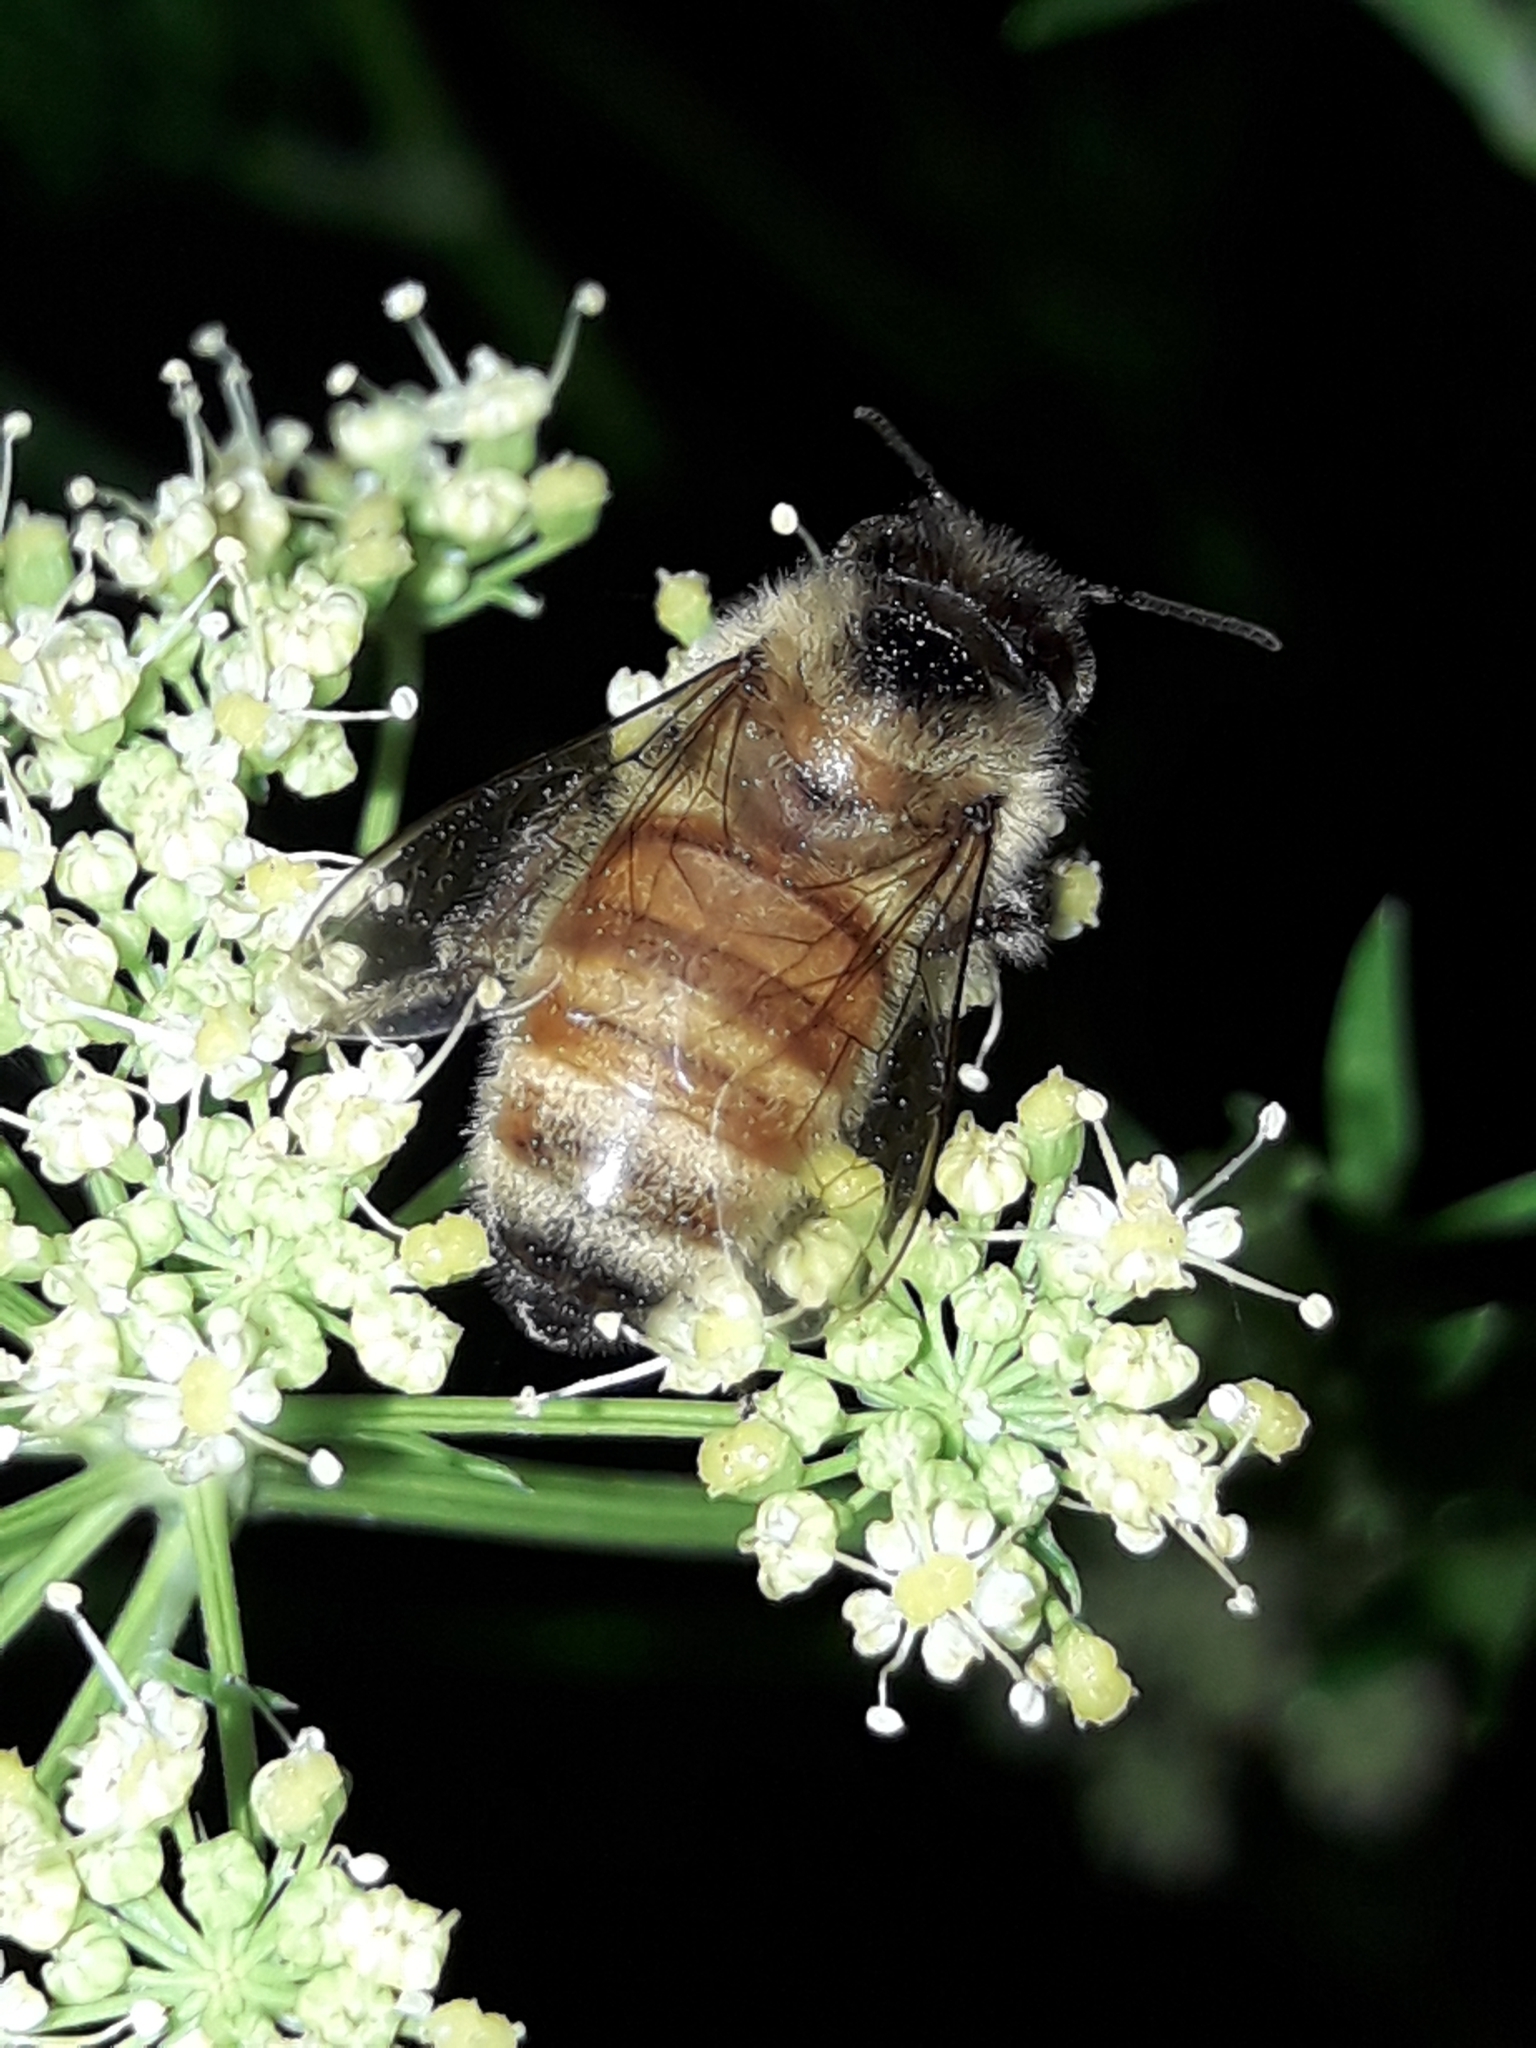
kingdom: Animalia
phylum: Arthropoda
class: Insecta
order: Hymenoptera
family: Apidae
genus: Apis
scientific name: Apis mellifera
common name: Honey bee
